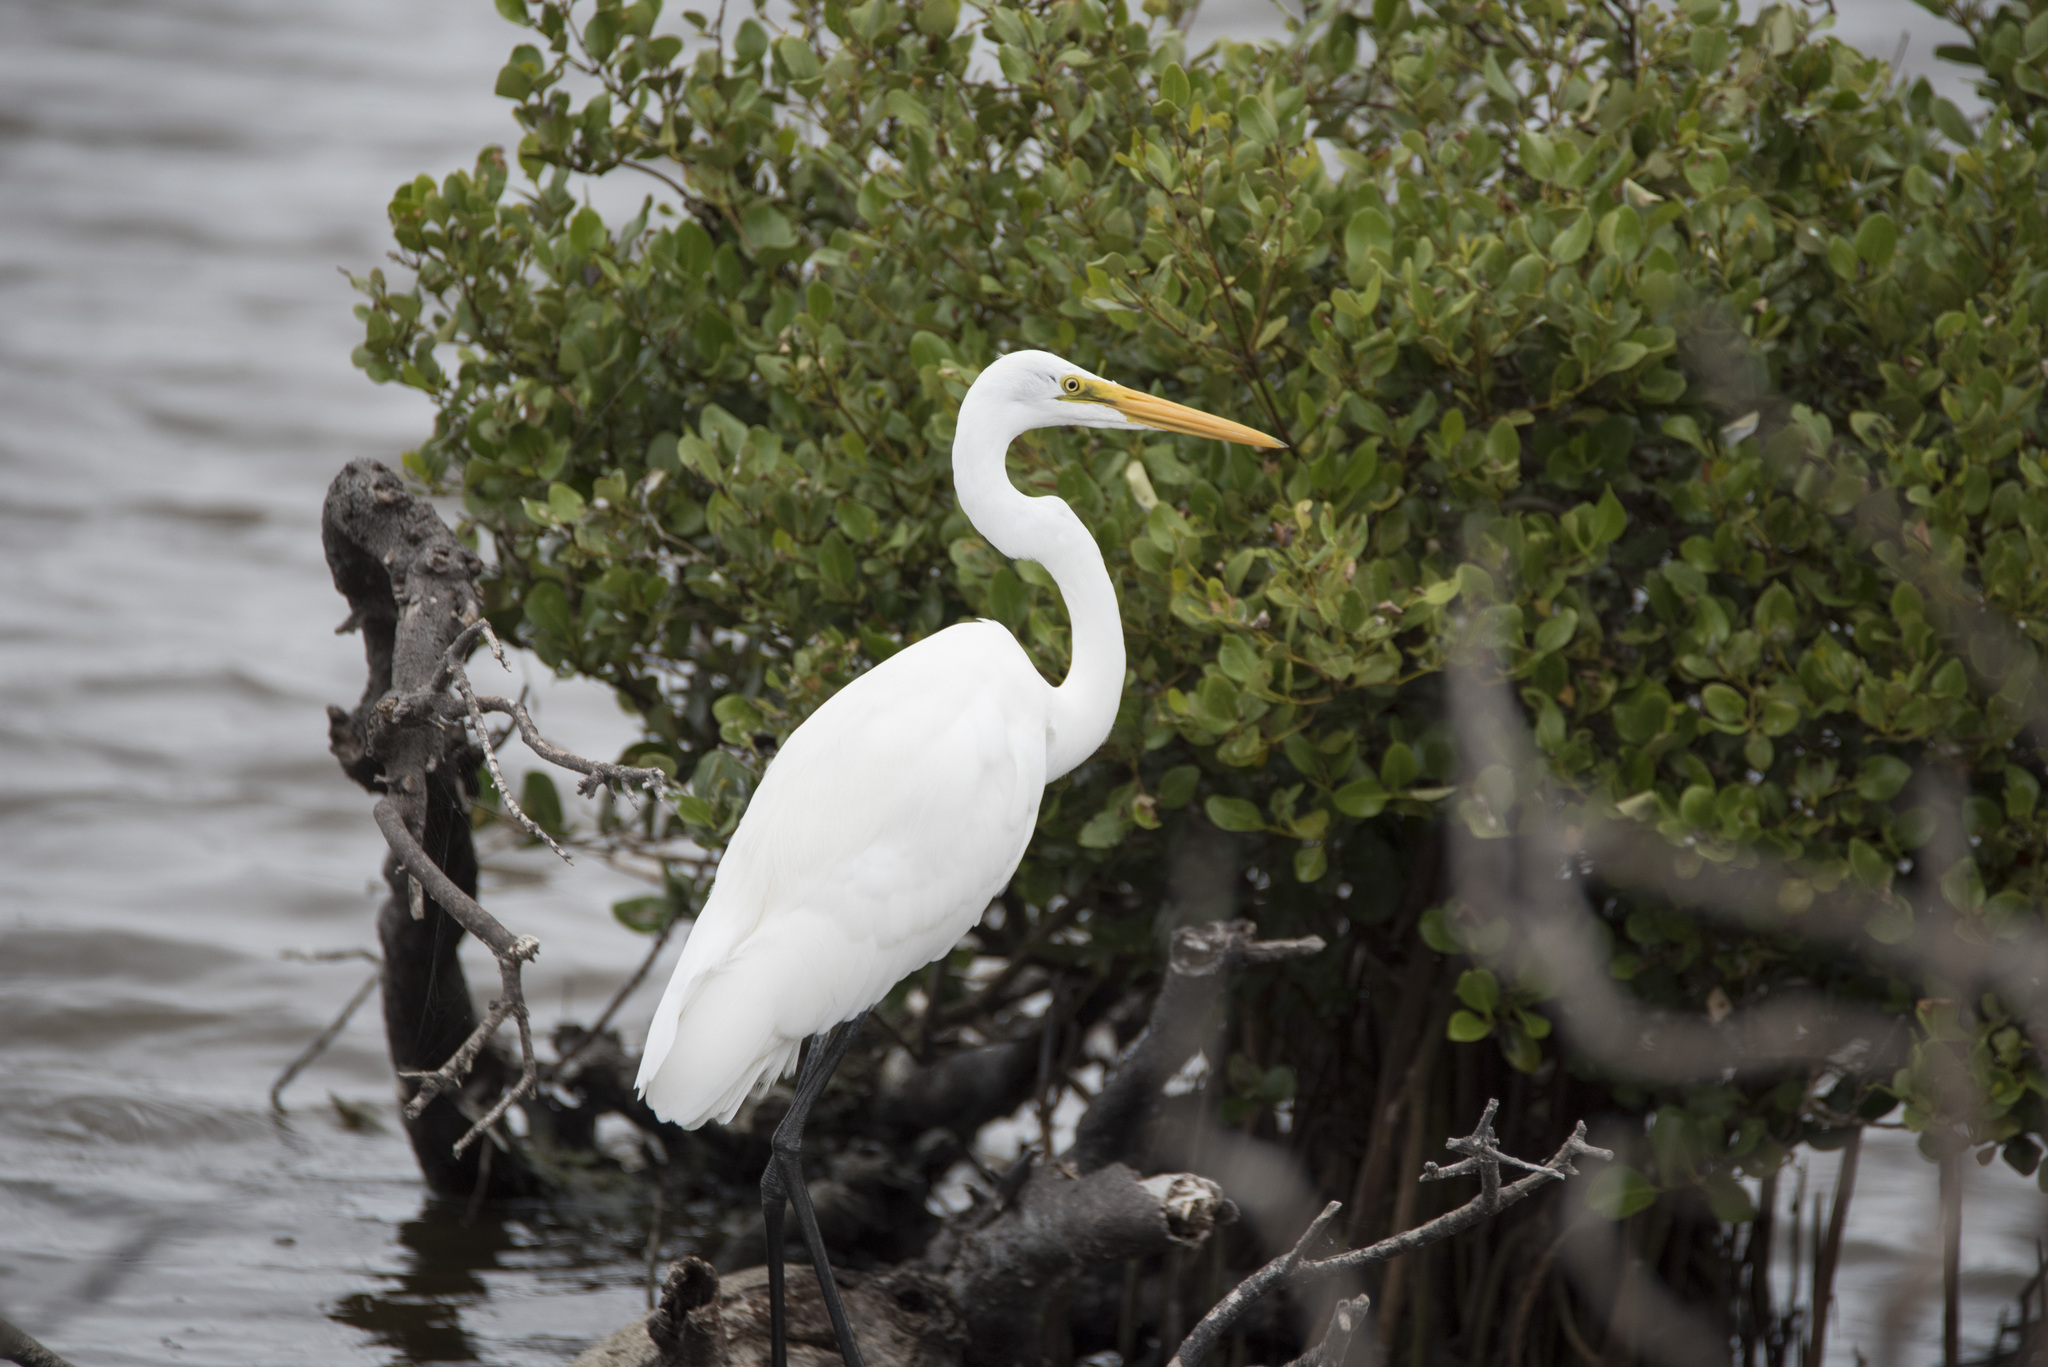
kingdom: Animalia
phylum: Chordata
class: Aves
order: Pelecaniformes
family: Ardeidae
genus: Ardea
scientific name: Ardea modesta
